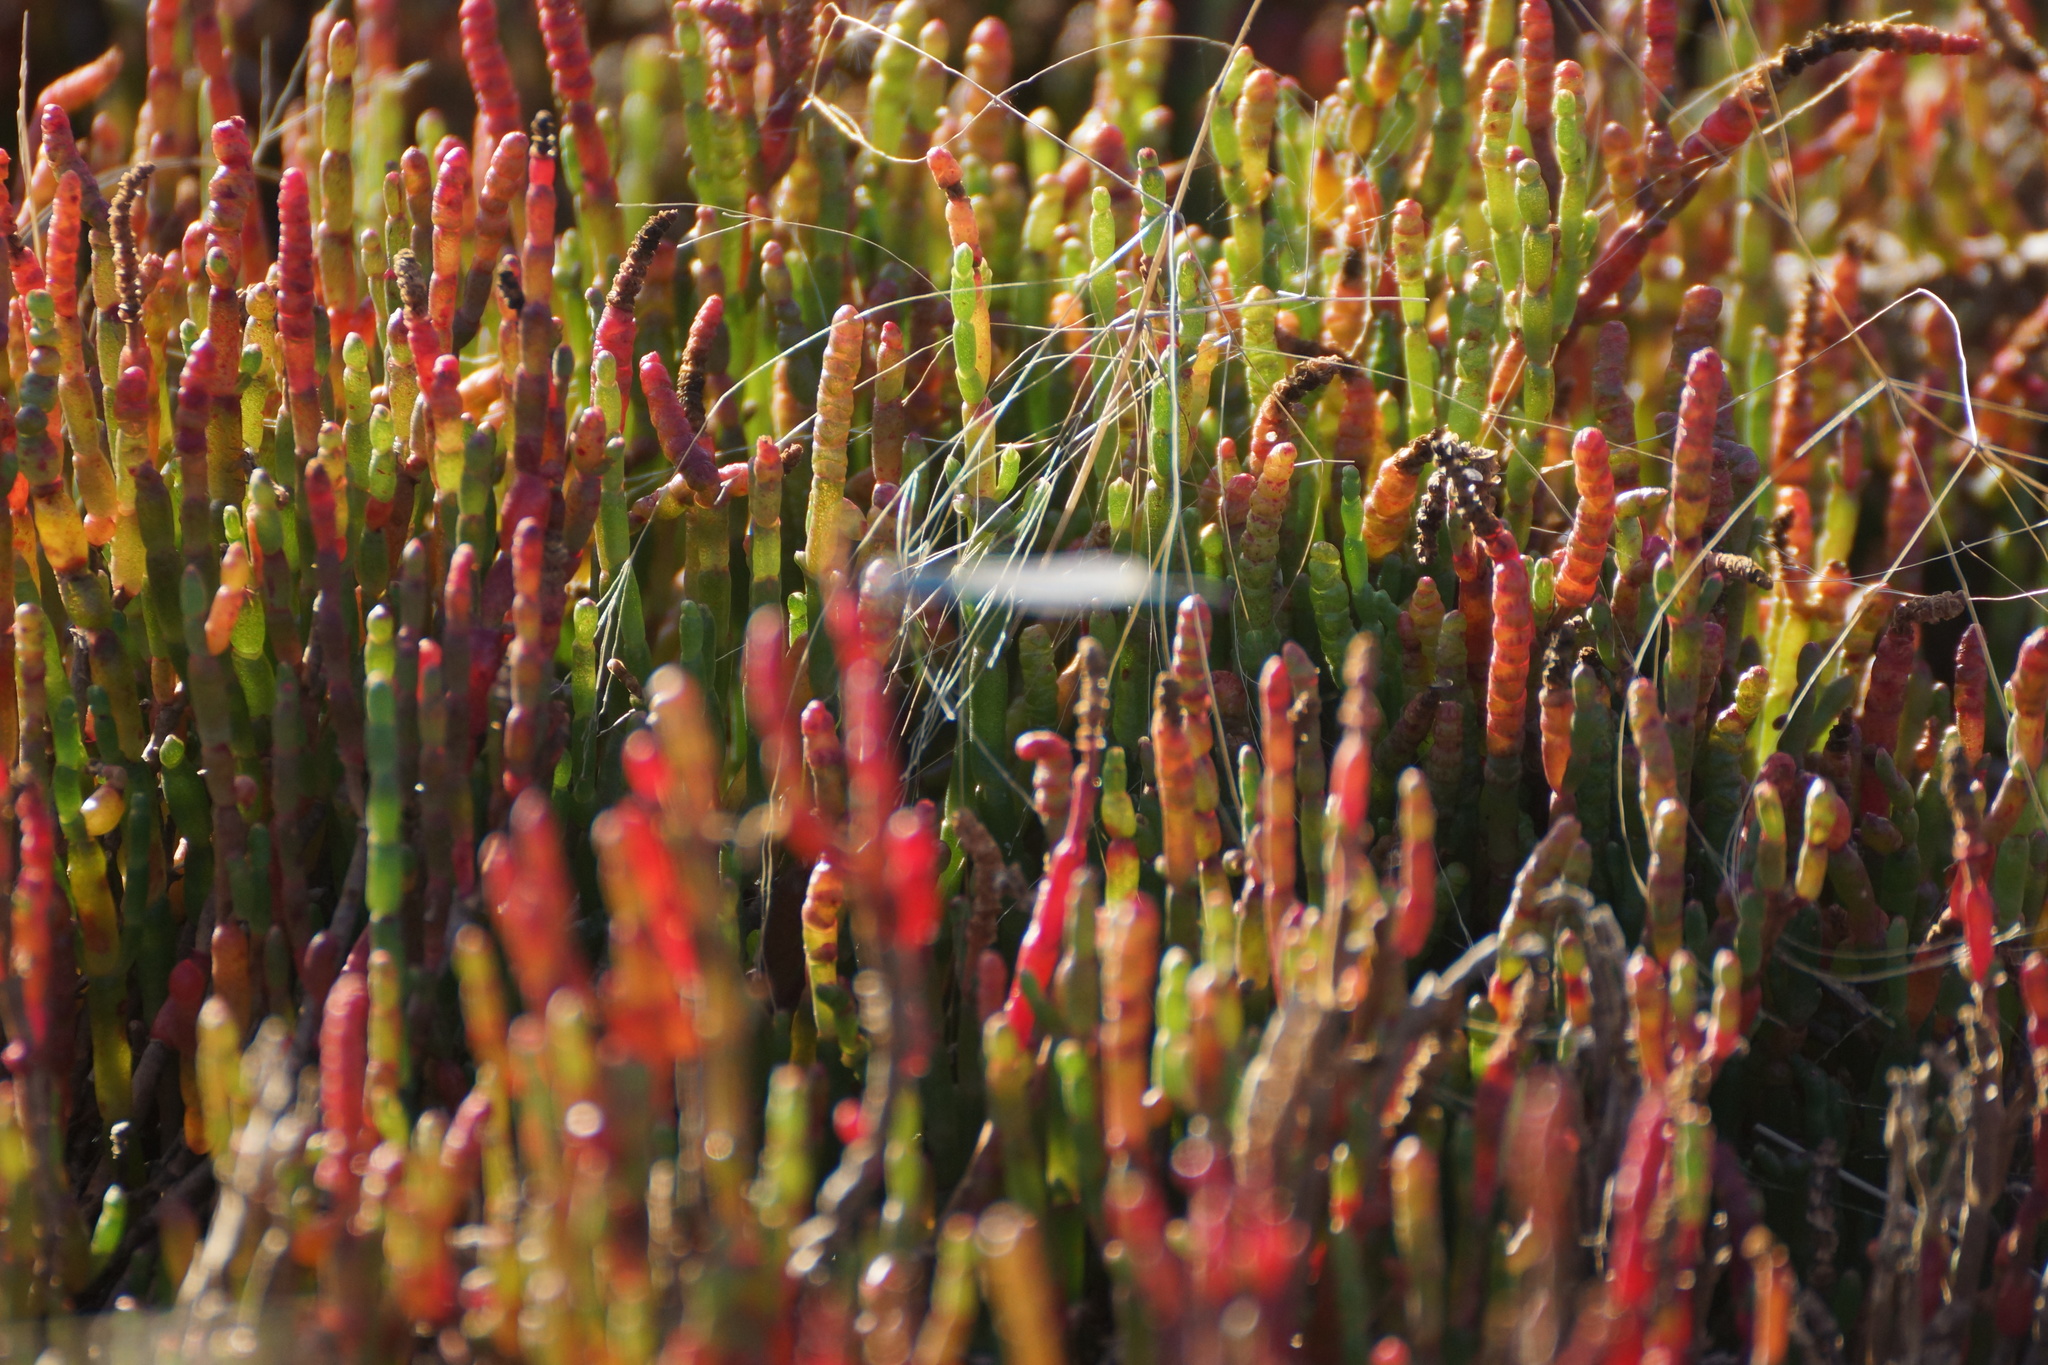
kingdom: Plantae
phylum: Tracheophyta
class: Magnoliopsida
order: Caryophyllales
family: Amaranthaceae
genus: Salicornia
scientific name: Salicornia quinqueflora
